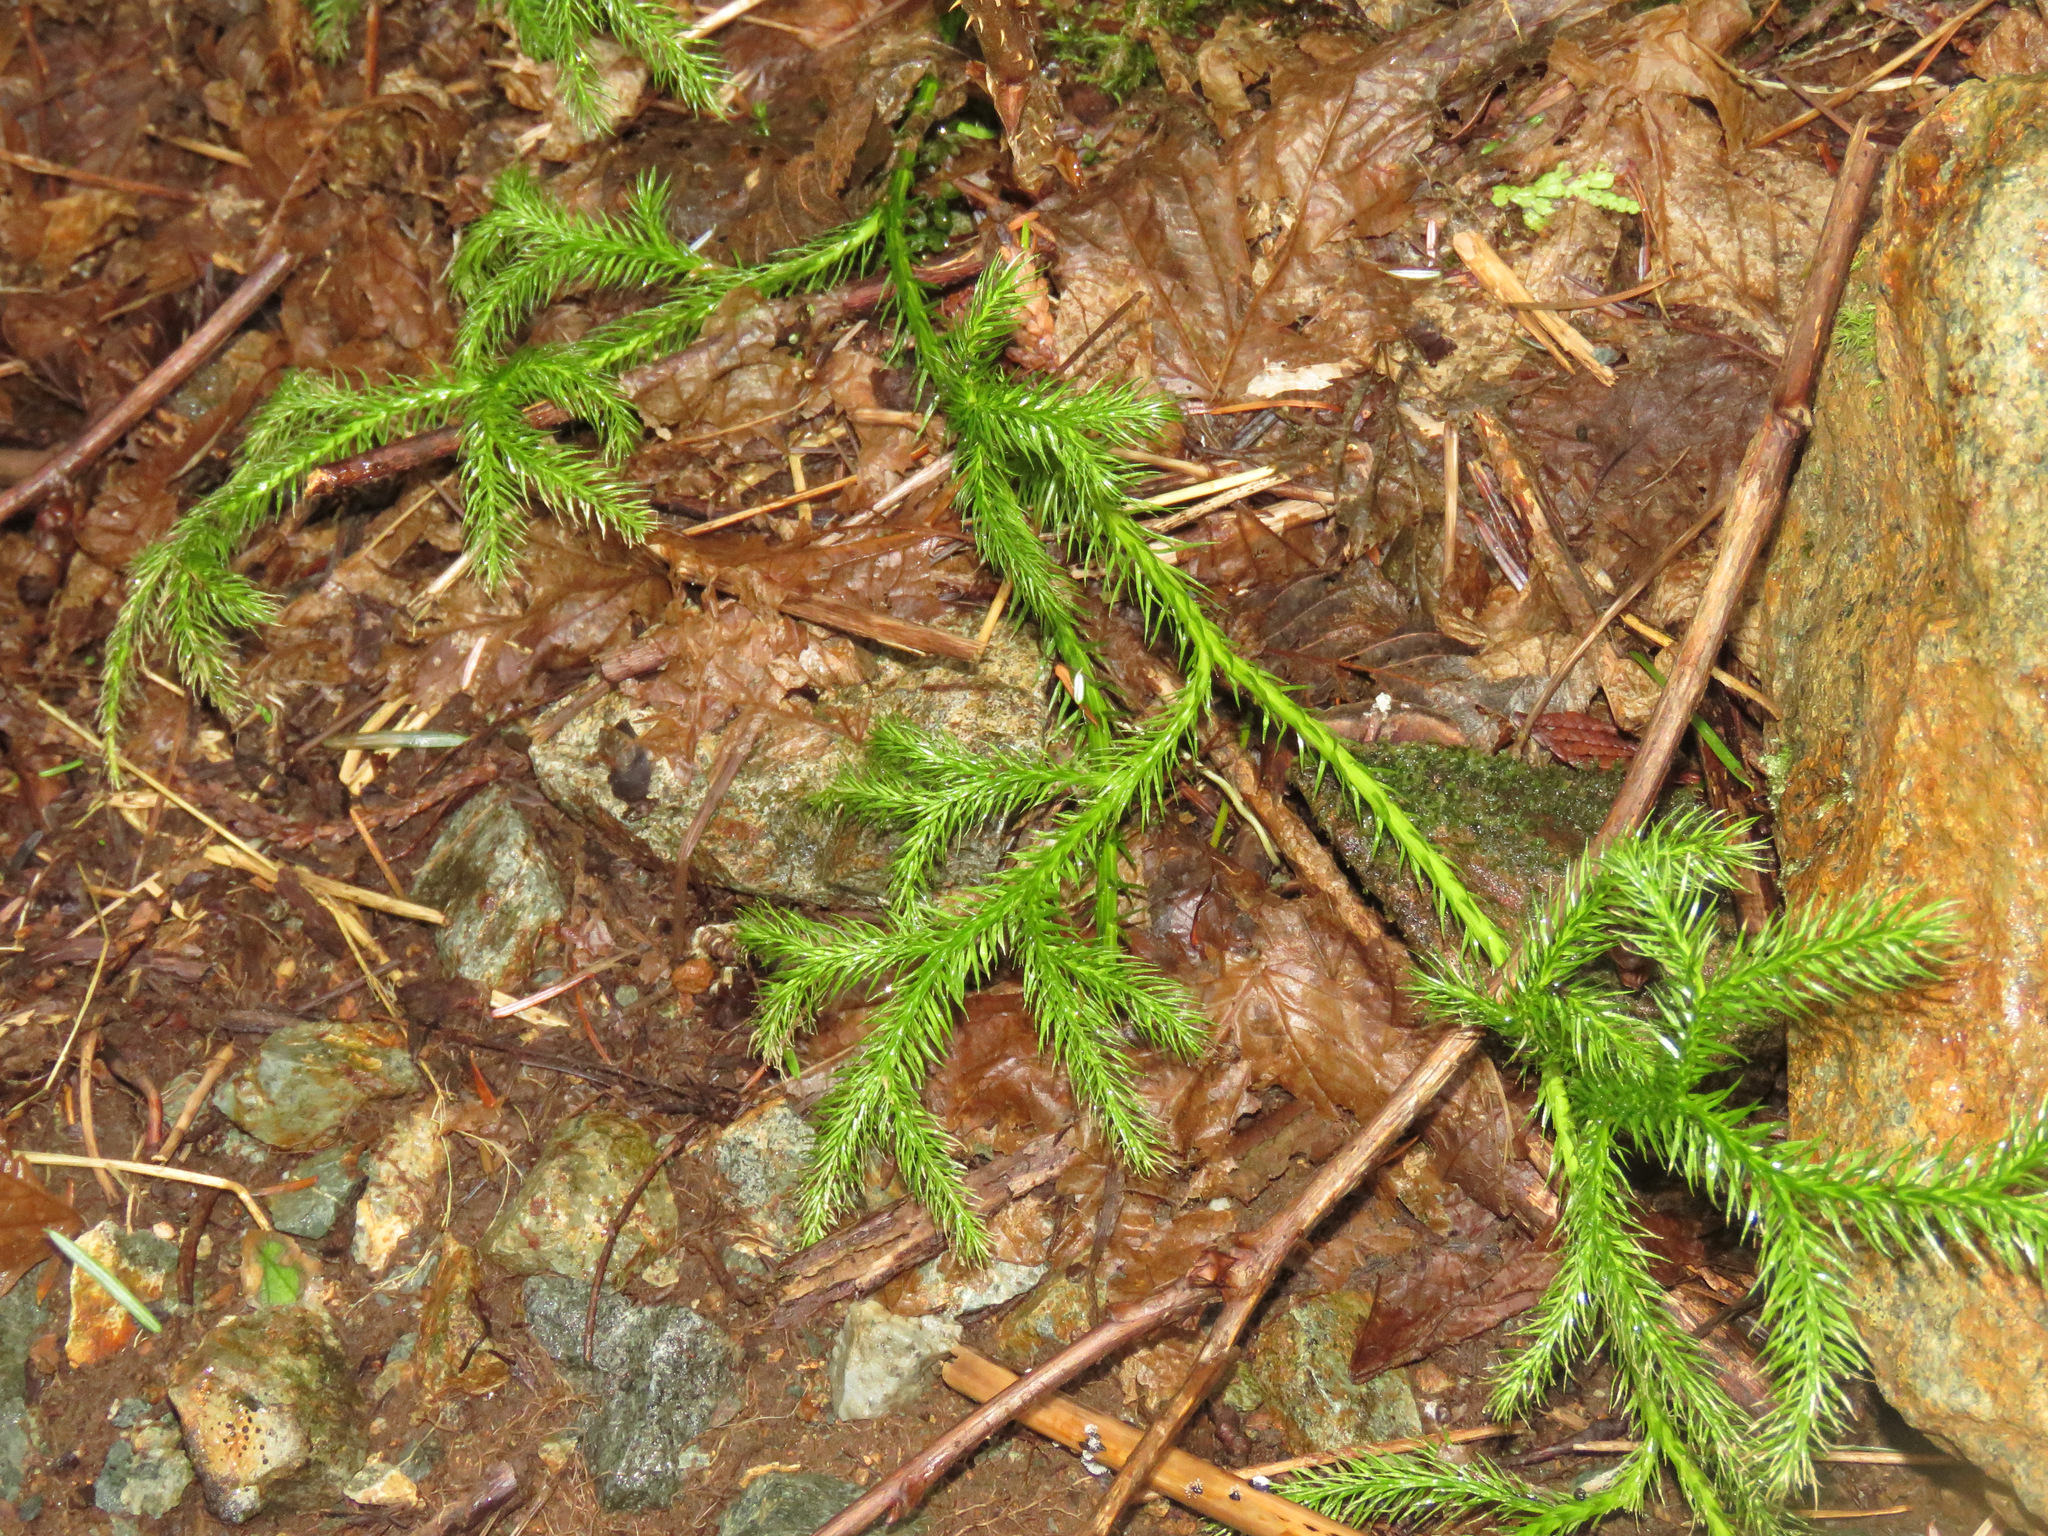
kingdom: Plantae
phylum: Tracheophyta
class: Lycopodiopsida
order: Lycopodiales
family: Lycopodiaceae
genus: Lycopodium
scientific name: Lycopodium clavatum
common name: Stag's-horn clubmoss
